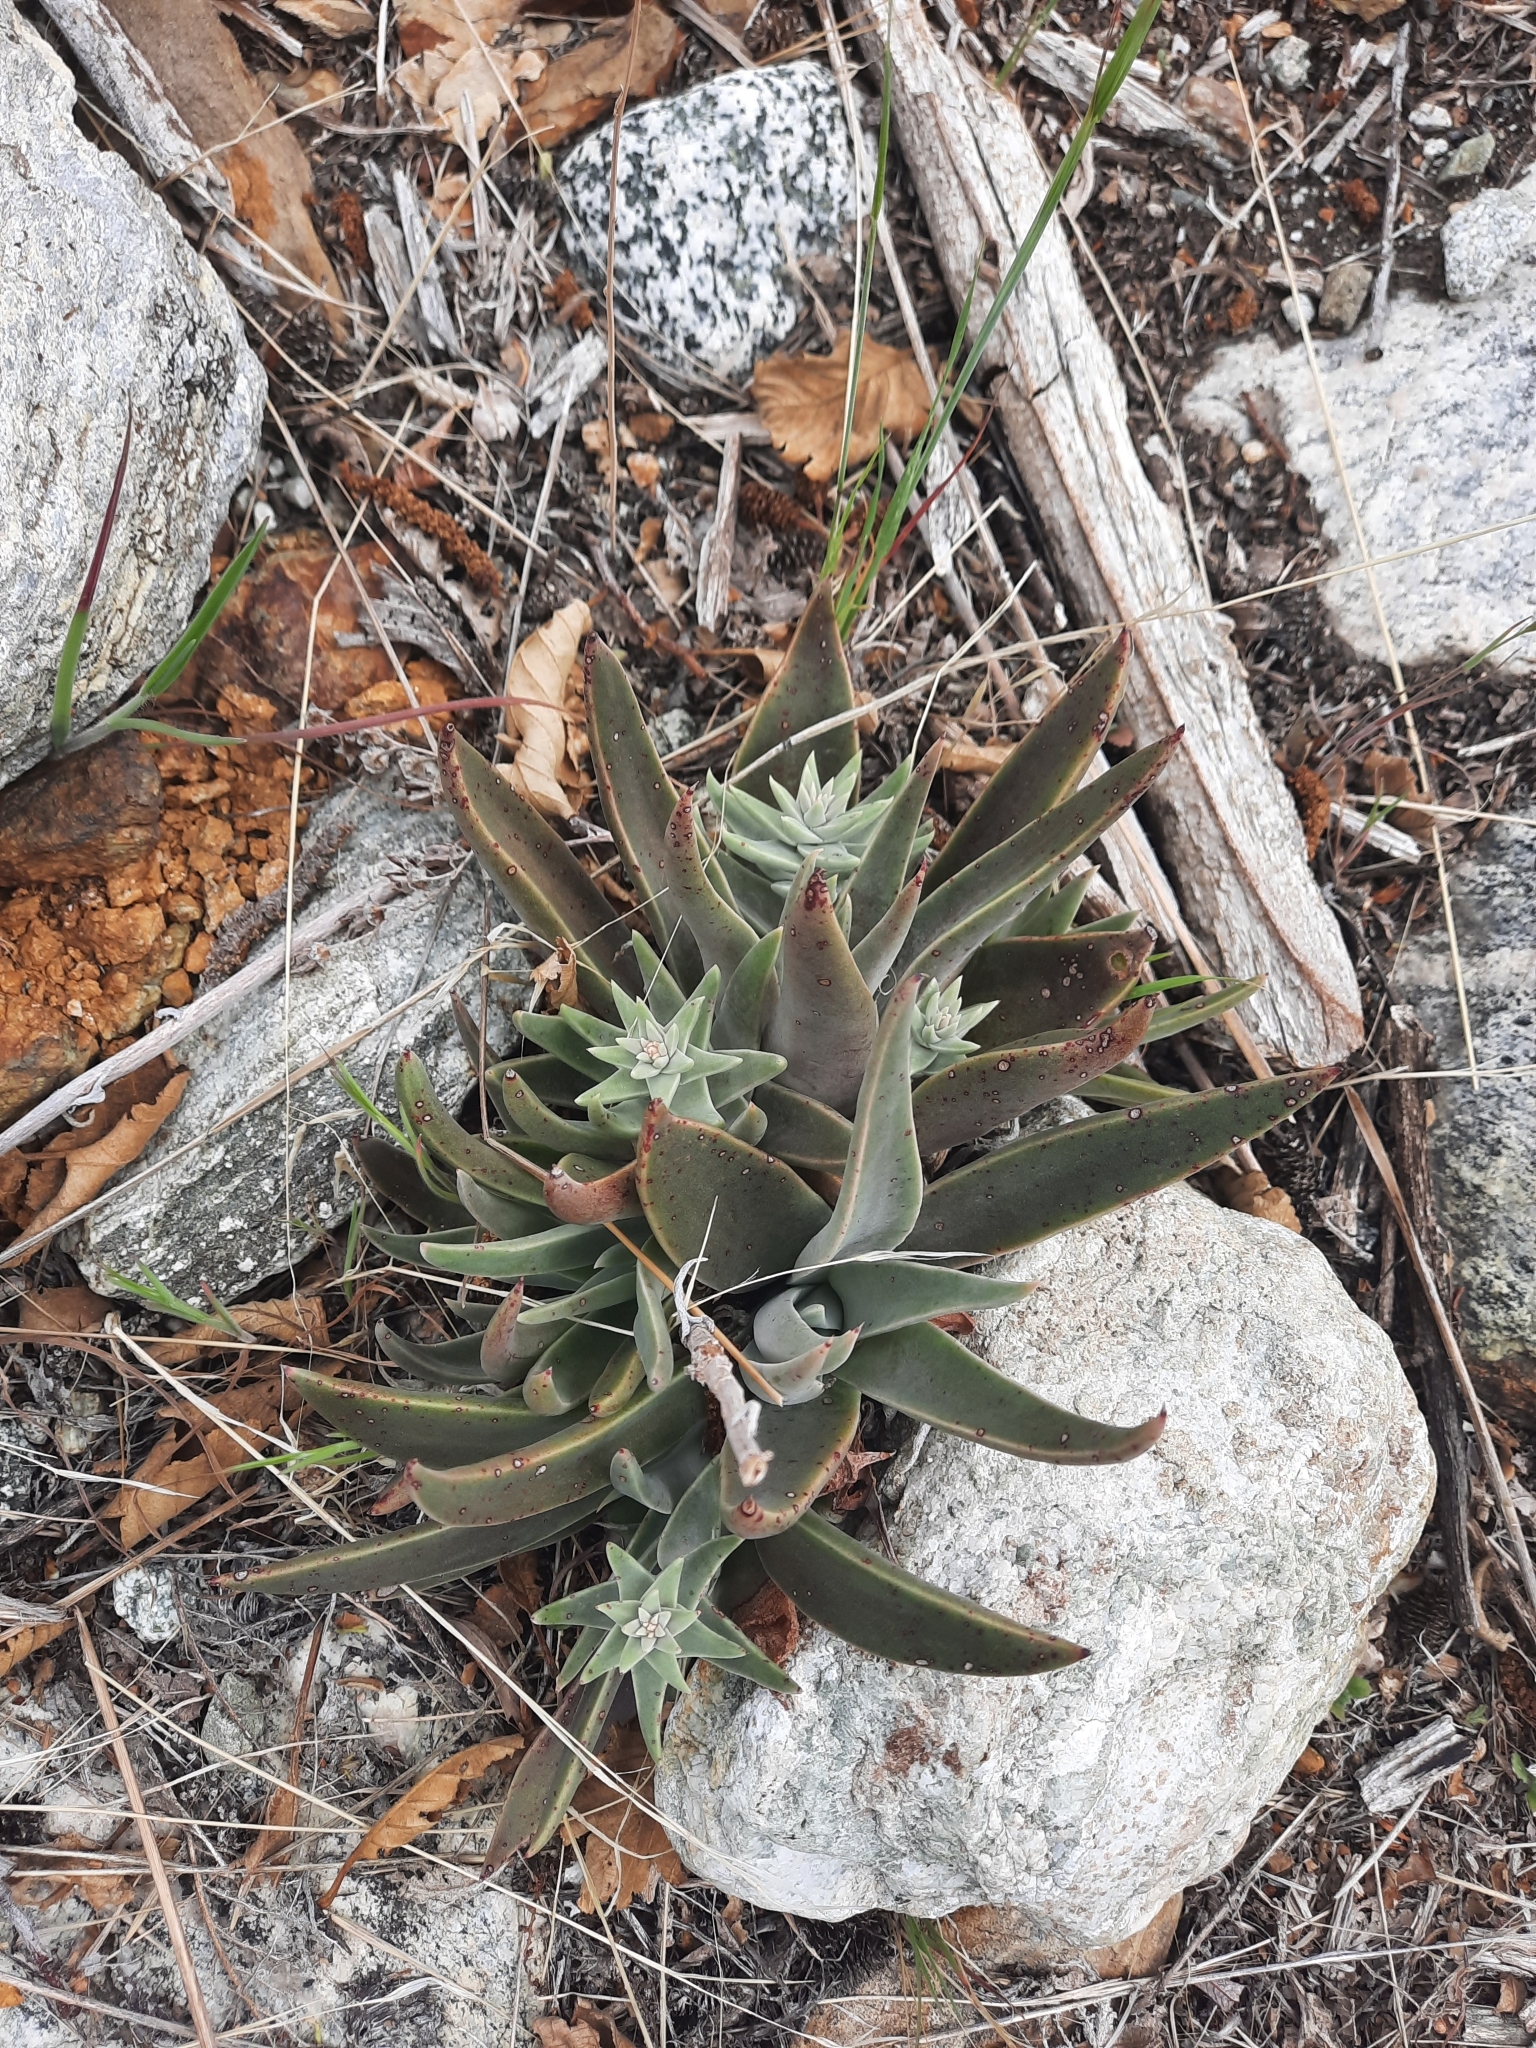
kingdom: Plantae
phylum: Tracheophyta
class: Magnoliopsida
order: Saxifragales
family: Crassulaceae
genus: Dudleya
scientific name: Dudleya lanceolata
